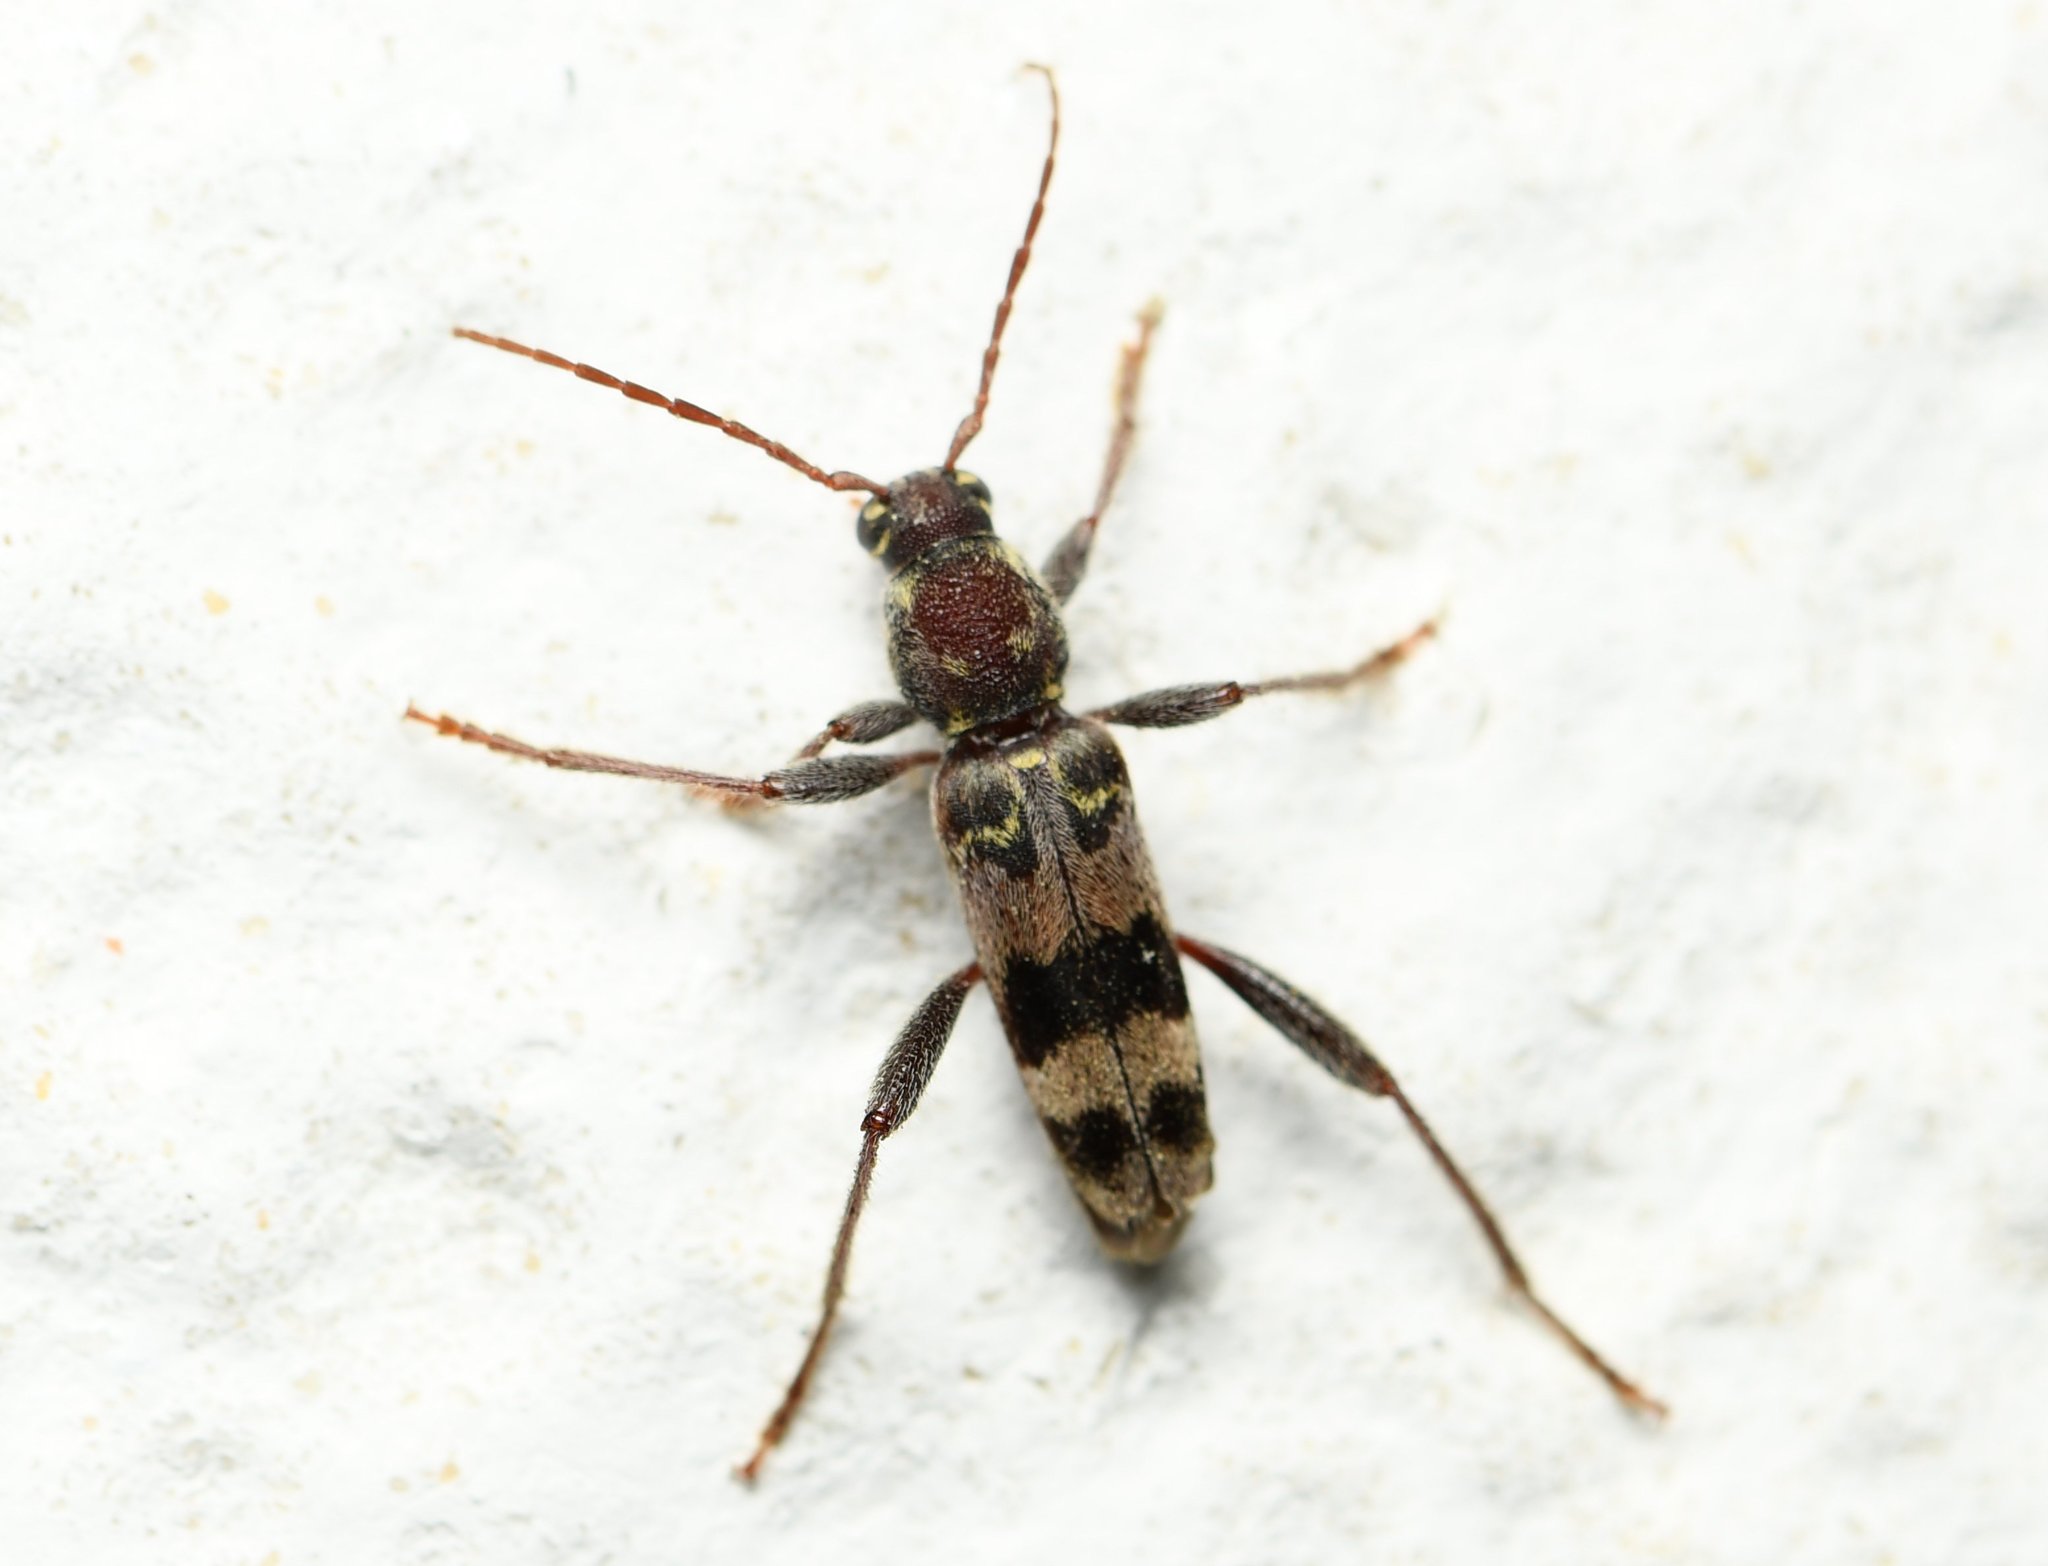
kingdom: Animalia
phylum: Arthropoda
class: Insecta
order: Coleoptera
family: Cerambycidae
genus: Xylotrechus
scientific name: Xylotrechus colonus
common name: Long-horned beetle
